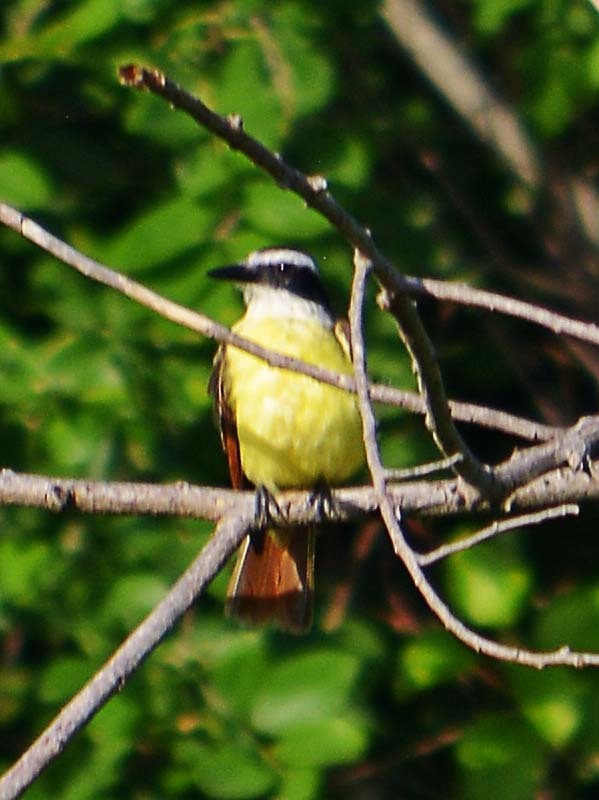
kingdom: Animalia
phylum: Chordata
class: Aves
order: Passeriformes
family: Tyrannidae
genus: Pitangus
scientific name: Pitangus sulphuratus
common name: Great kiskadee
